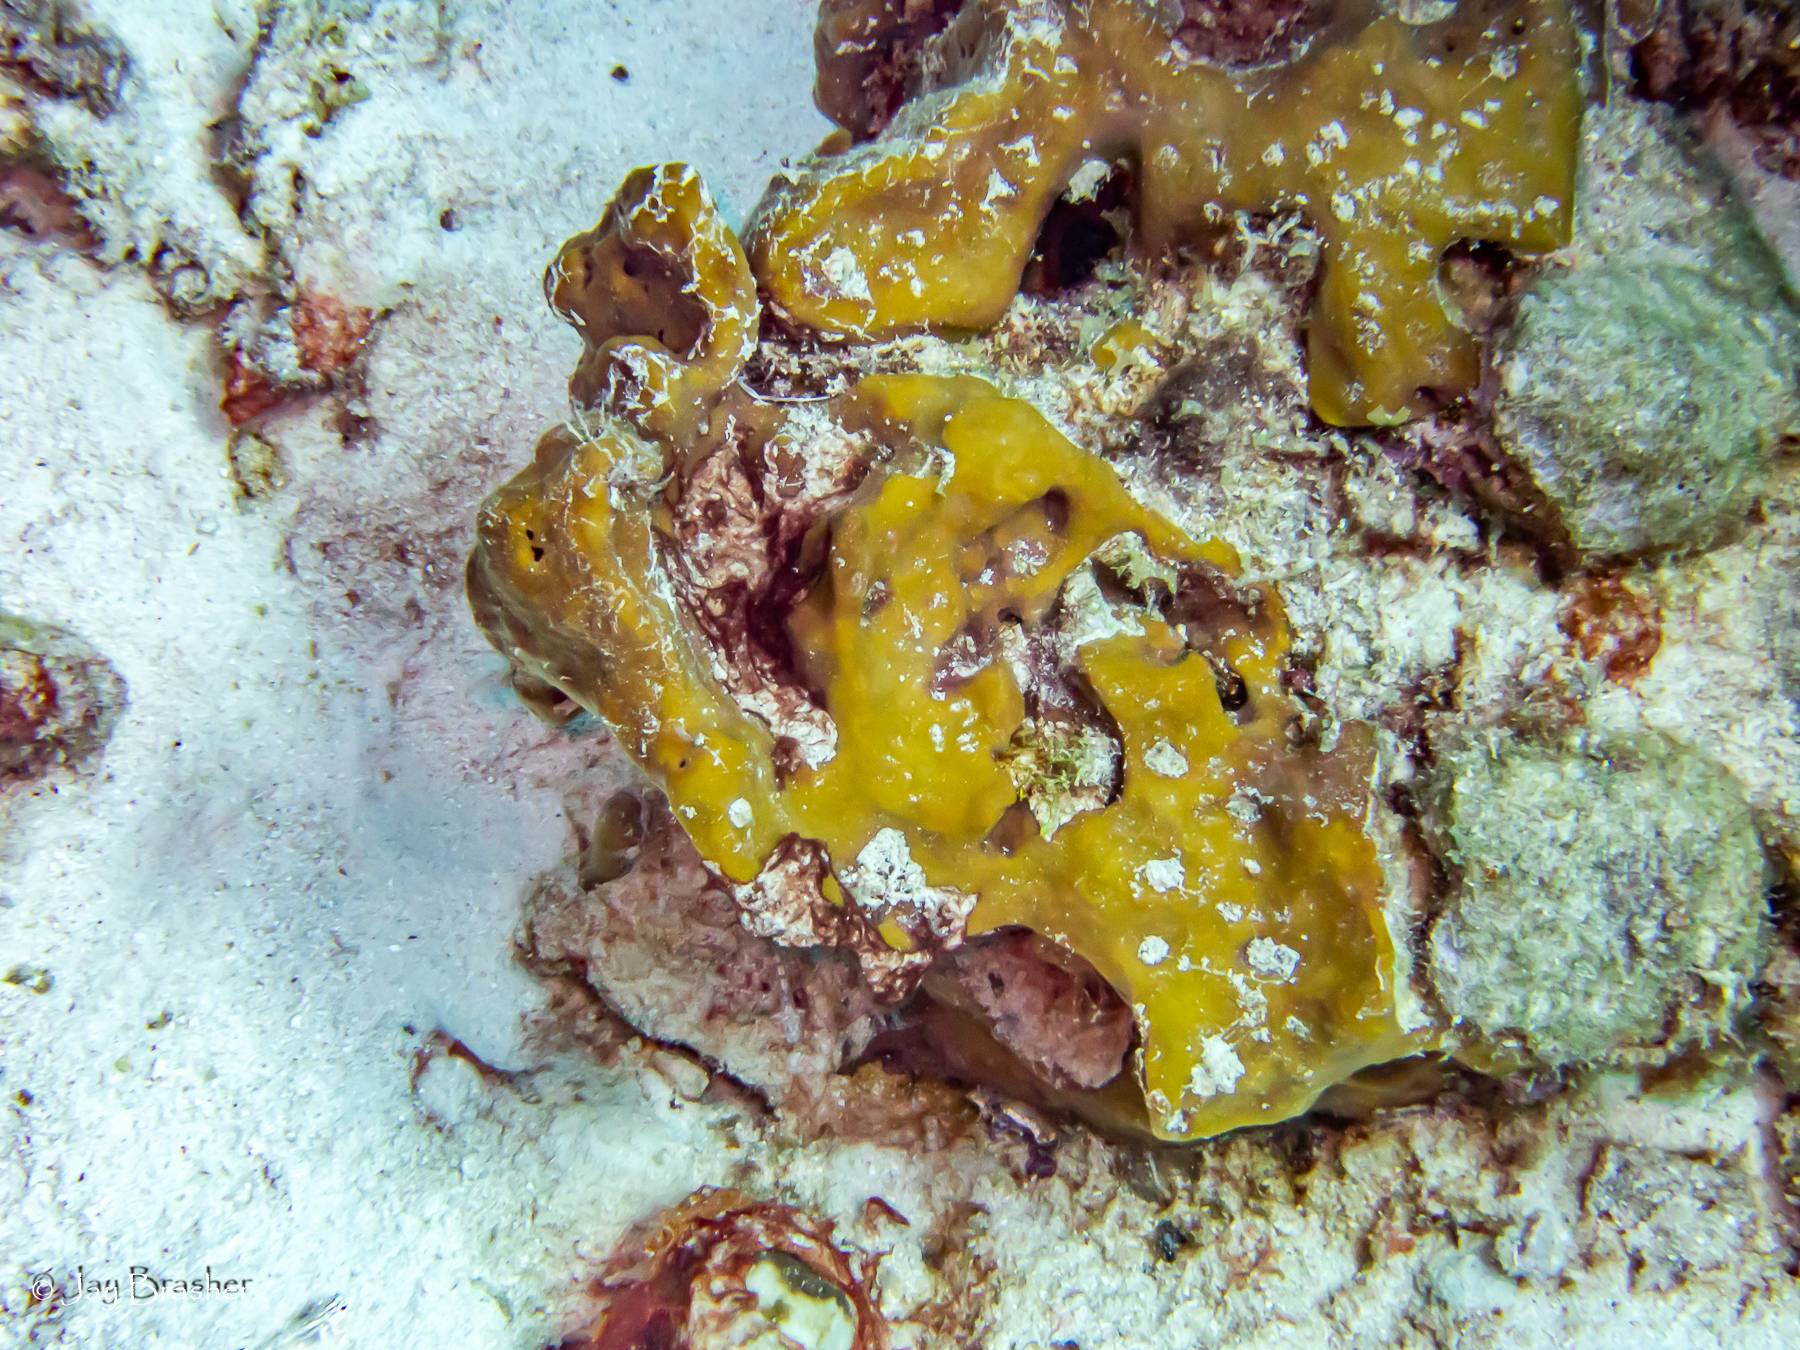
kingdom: Animalia
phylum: Porifera
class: Demospongiae
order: Suberitida
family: Halichondriidae
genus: Topsentia
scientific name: Topsentia ophiraphidites
